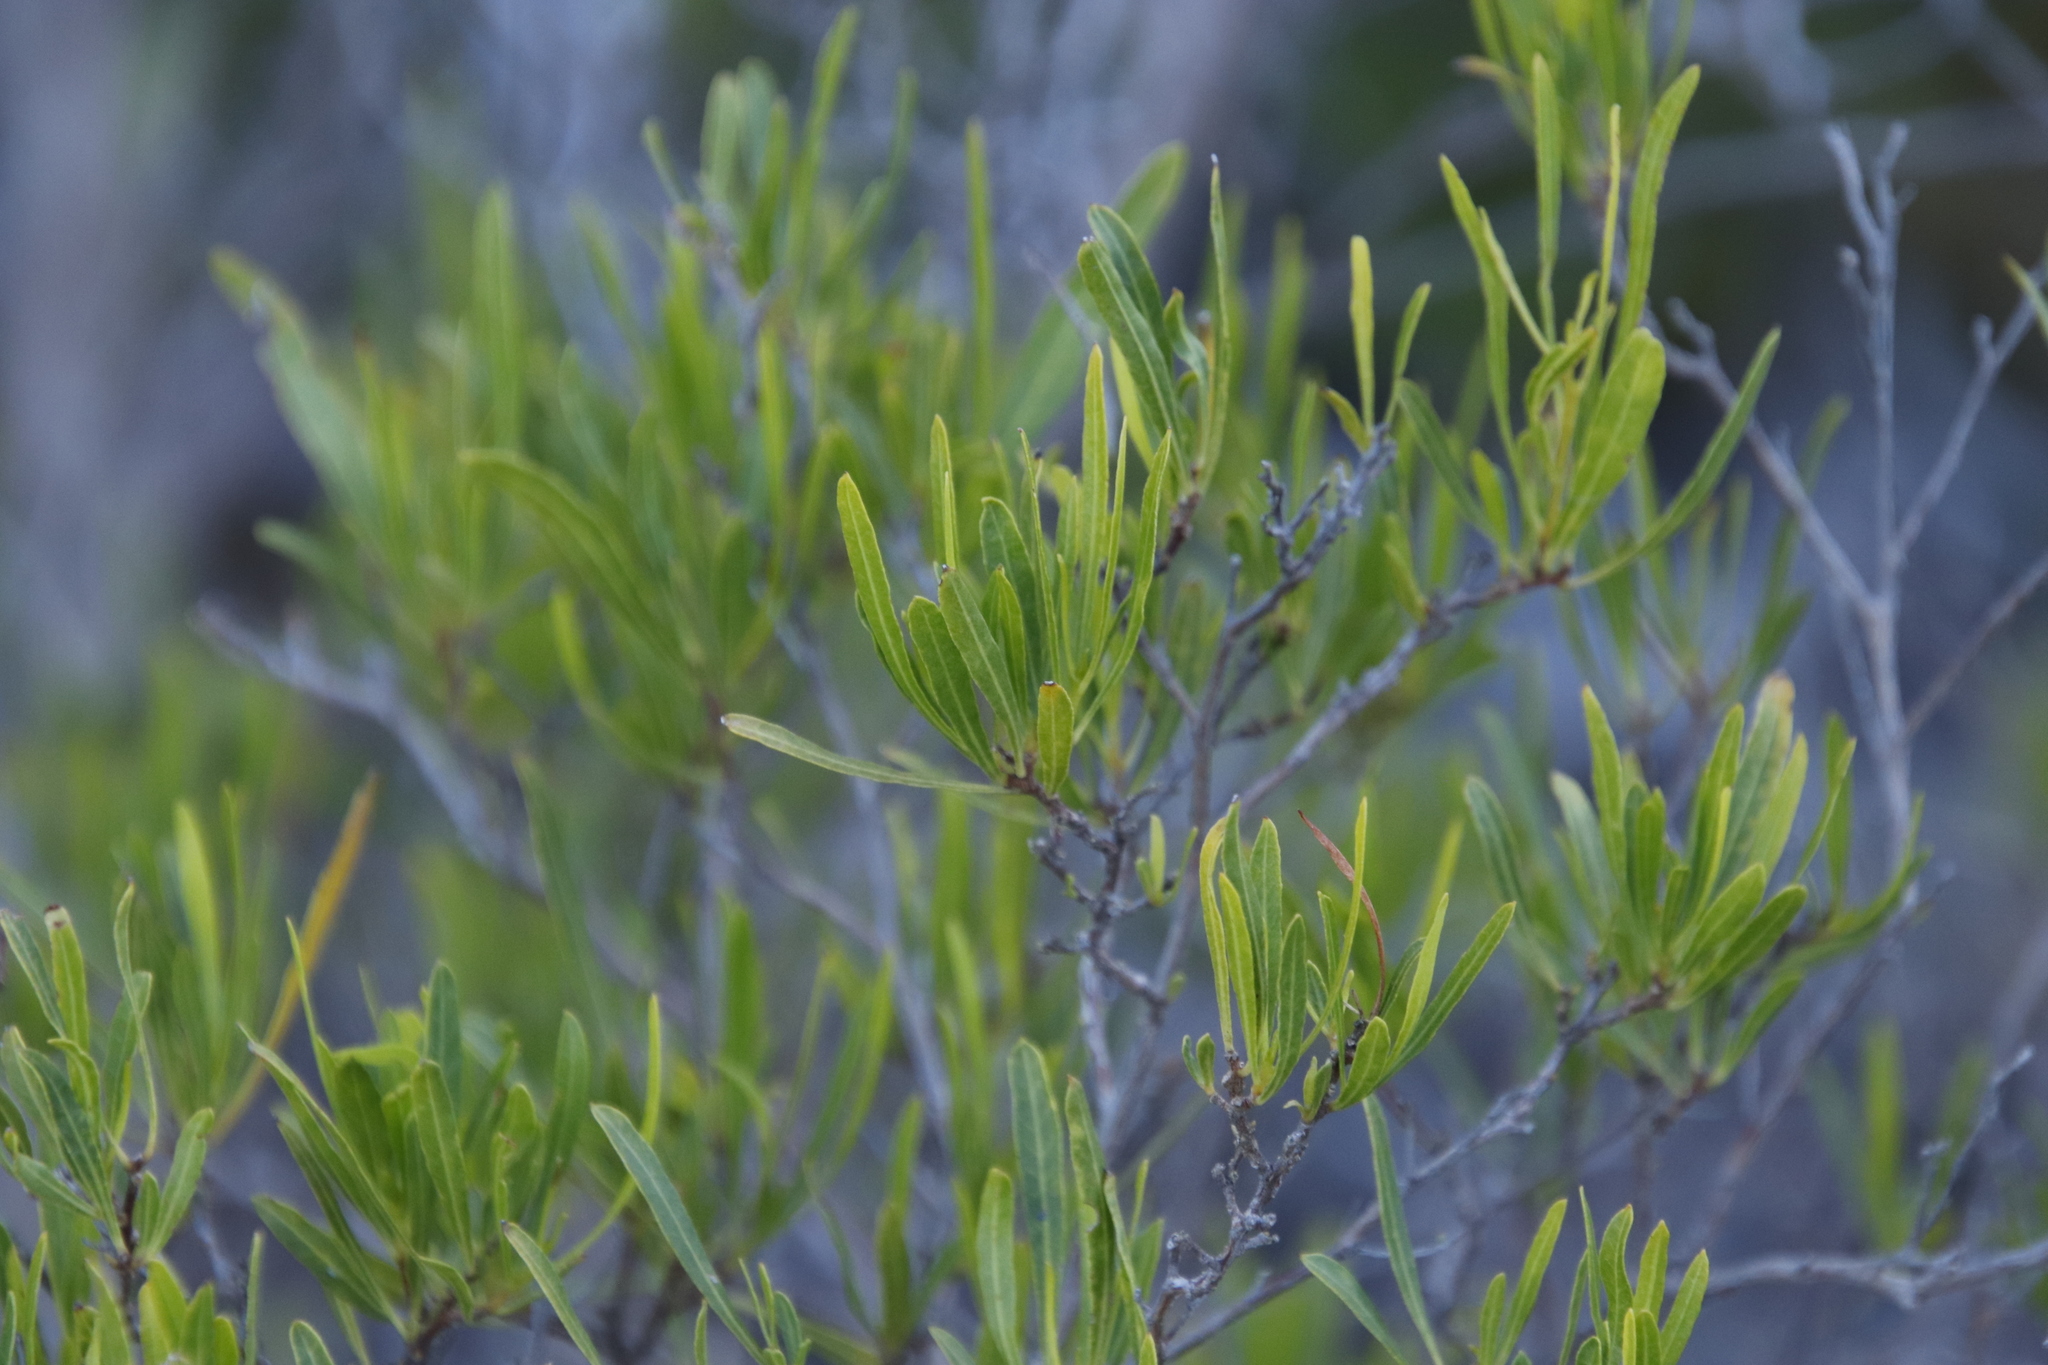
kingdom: Plantae
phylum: Tracheophyta
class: Magnoliopsida
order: Sapindales
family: Sapindaceae
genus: Dodonaea
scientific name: Dodonaea viscosa
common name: Hopbush
